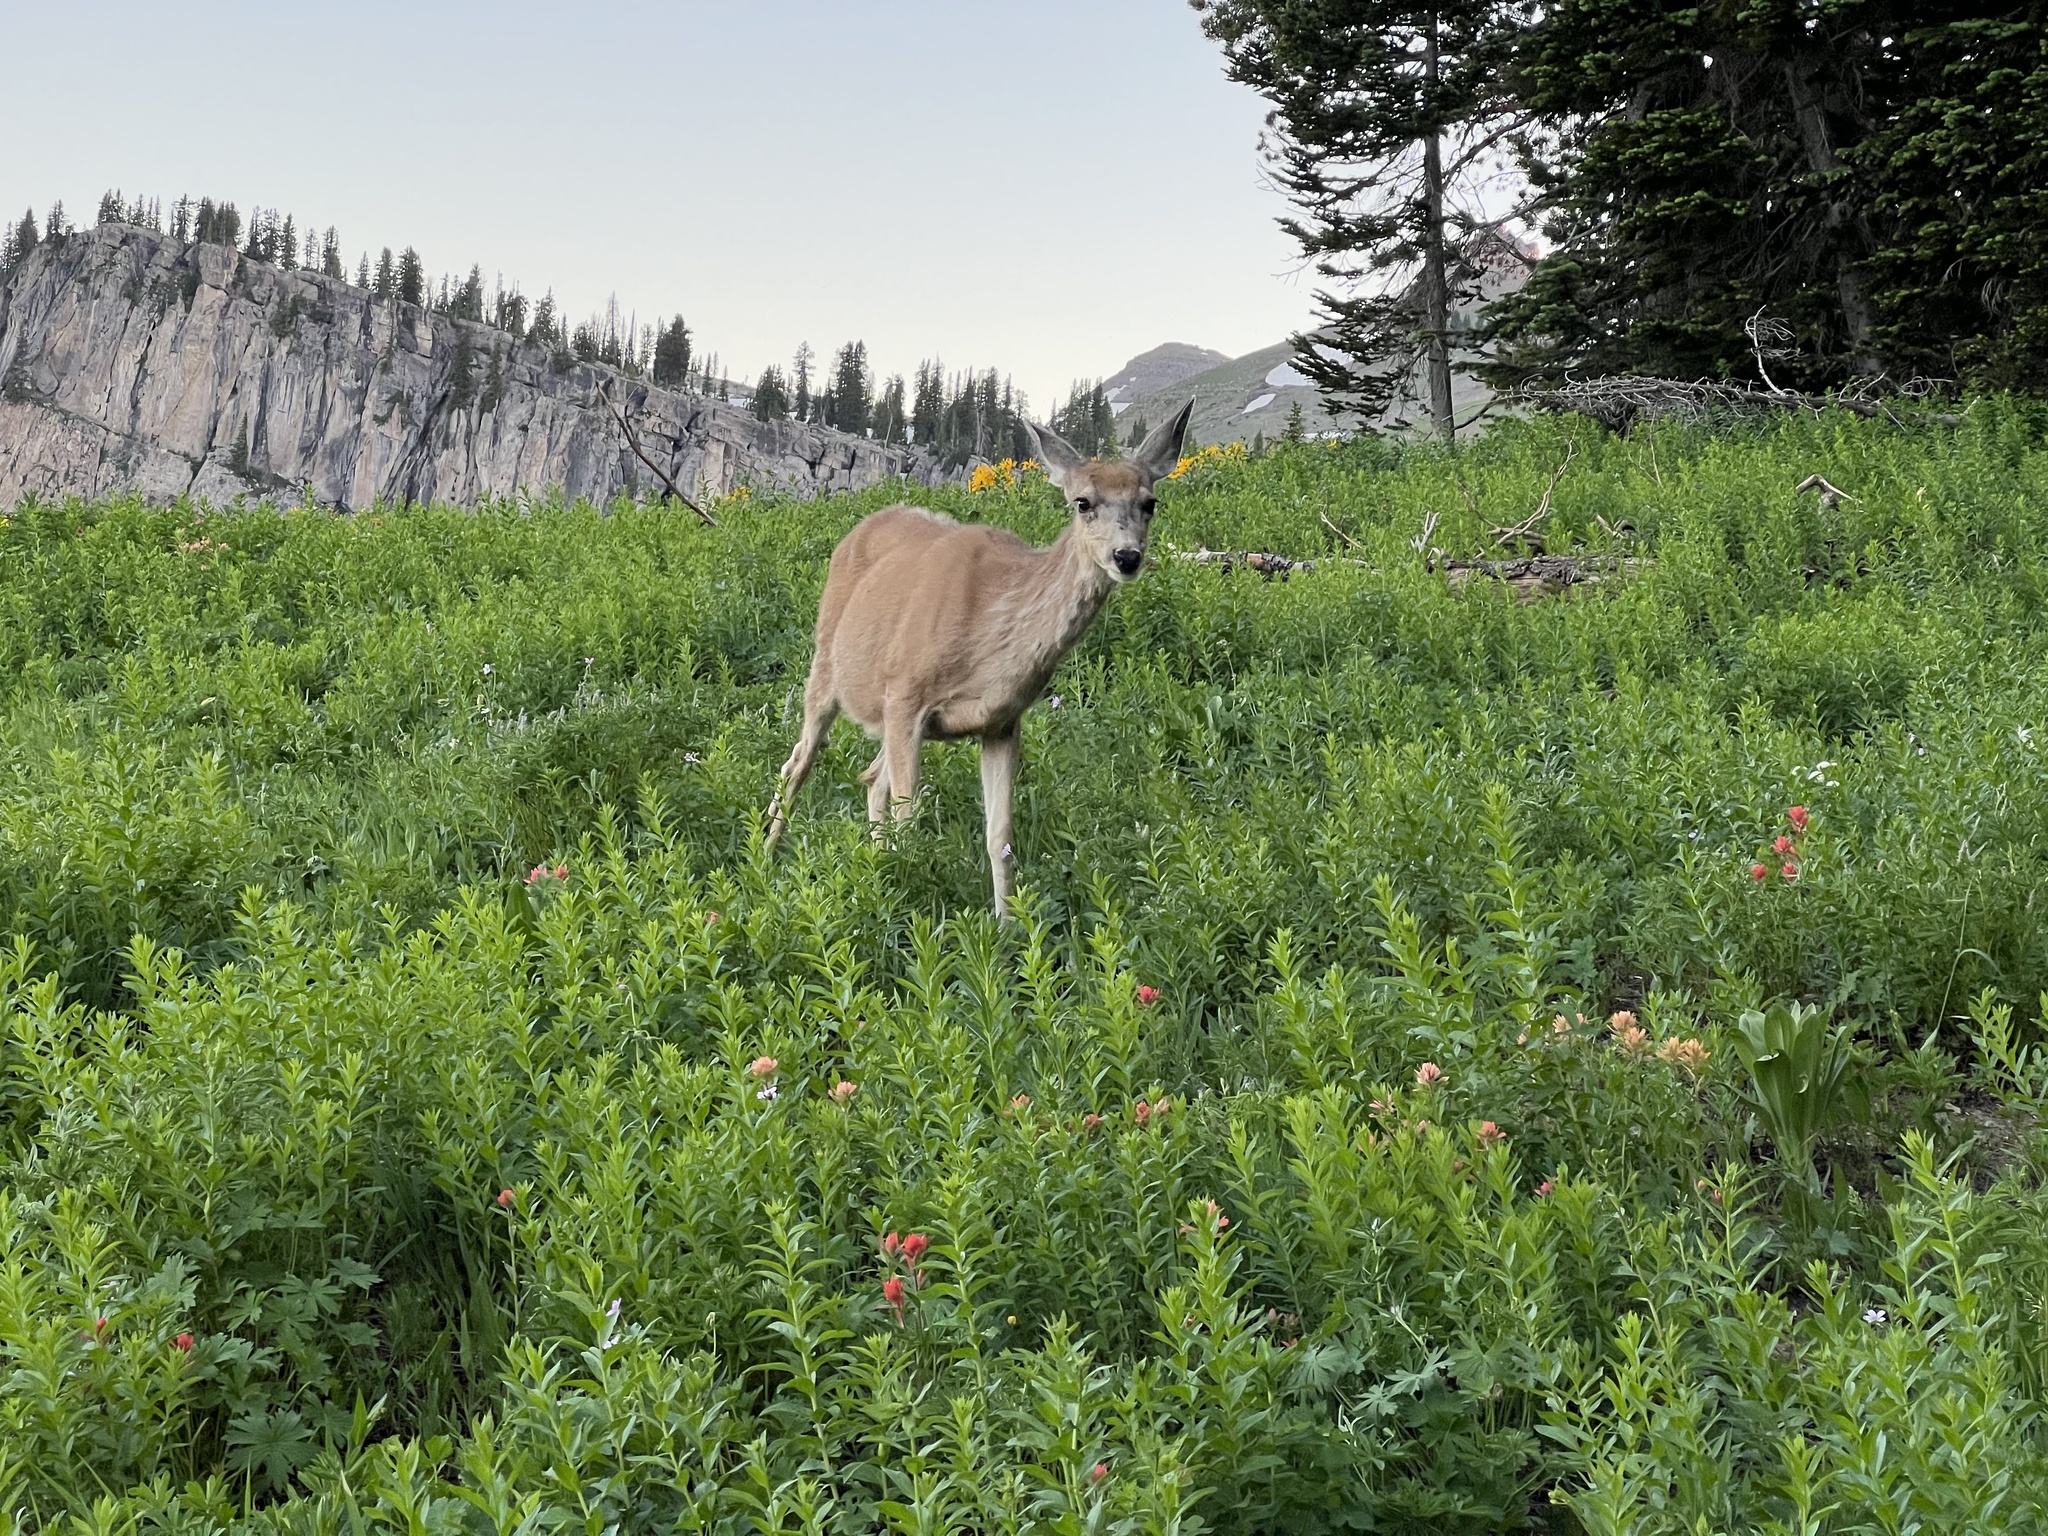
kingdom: Animalia
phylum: Chordata
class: Mammalia
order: Artiodactyla
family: Cervidae
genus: Odocoileus
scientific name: Odocoileus hemionus
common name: Mule deer
